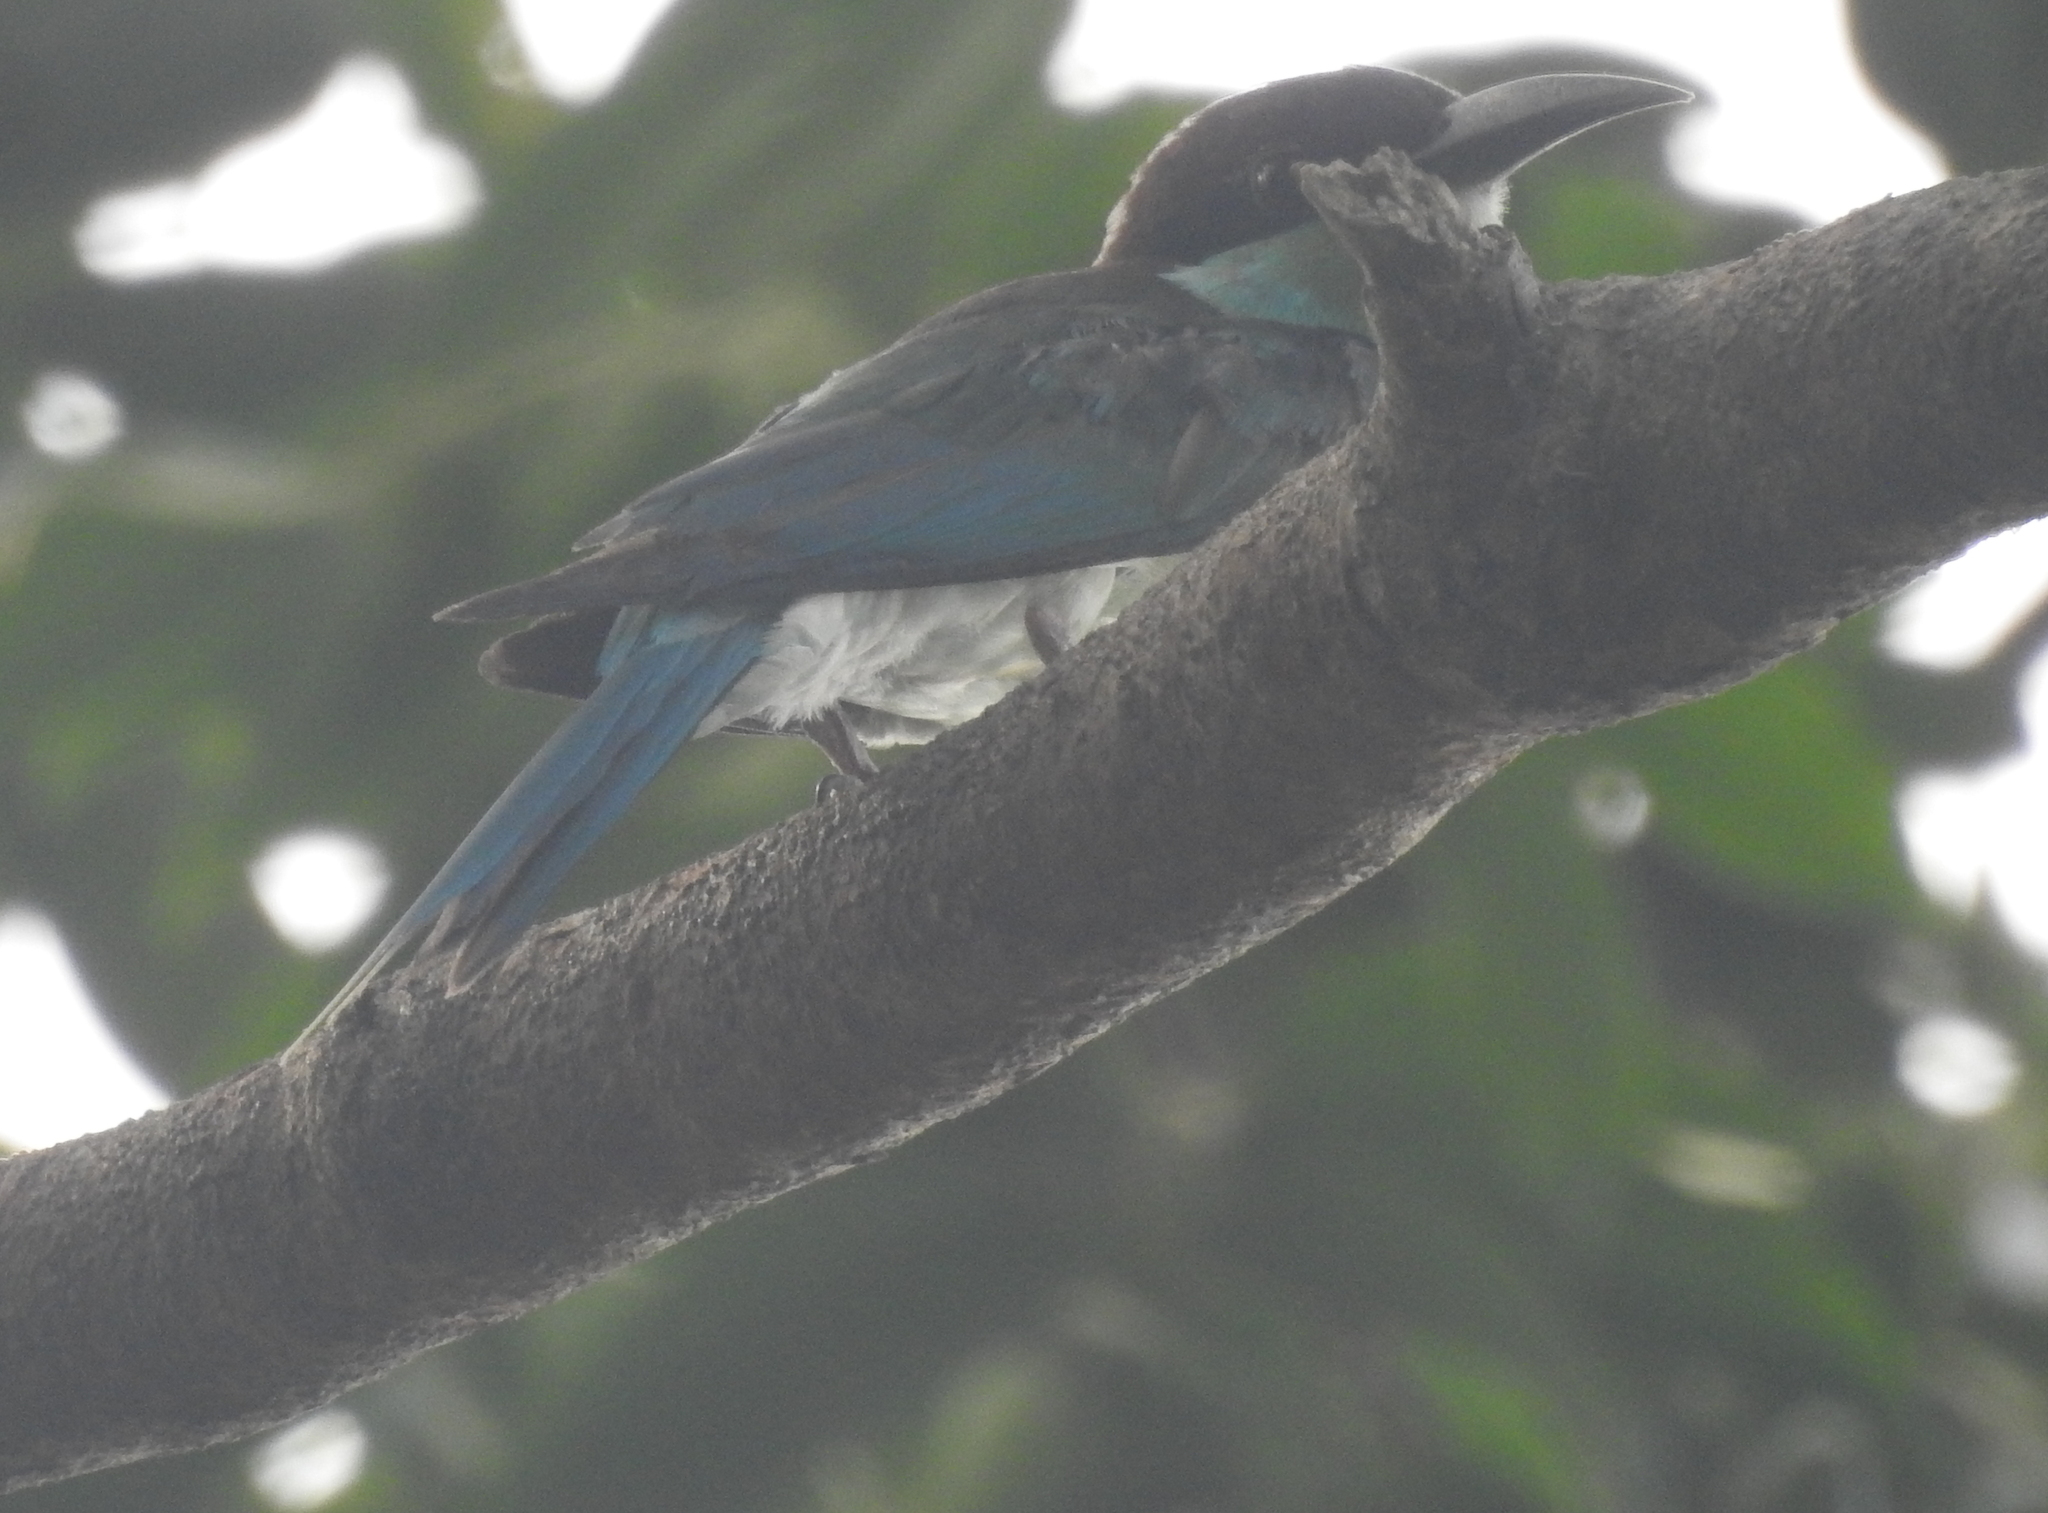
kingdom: Animalia
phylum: Chordata
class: Aves
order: Coraciiformes
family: Meropidae
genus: Merops
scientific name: Merops viridis
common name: Blue-throated bee-eater
